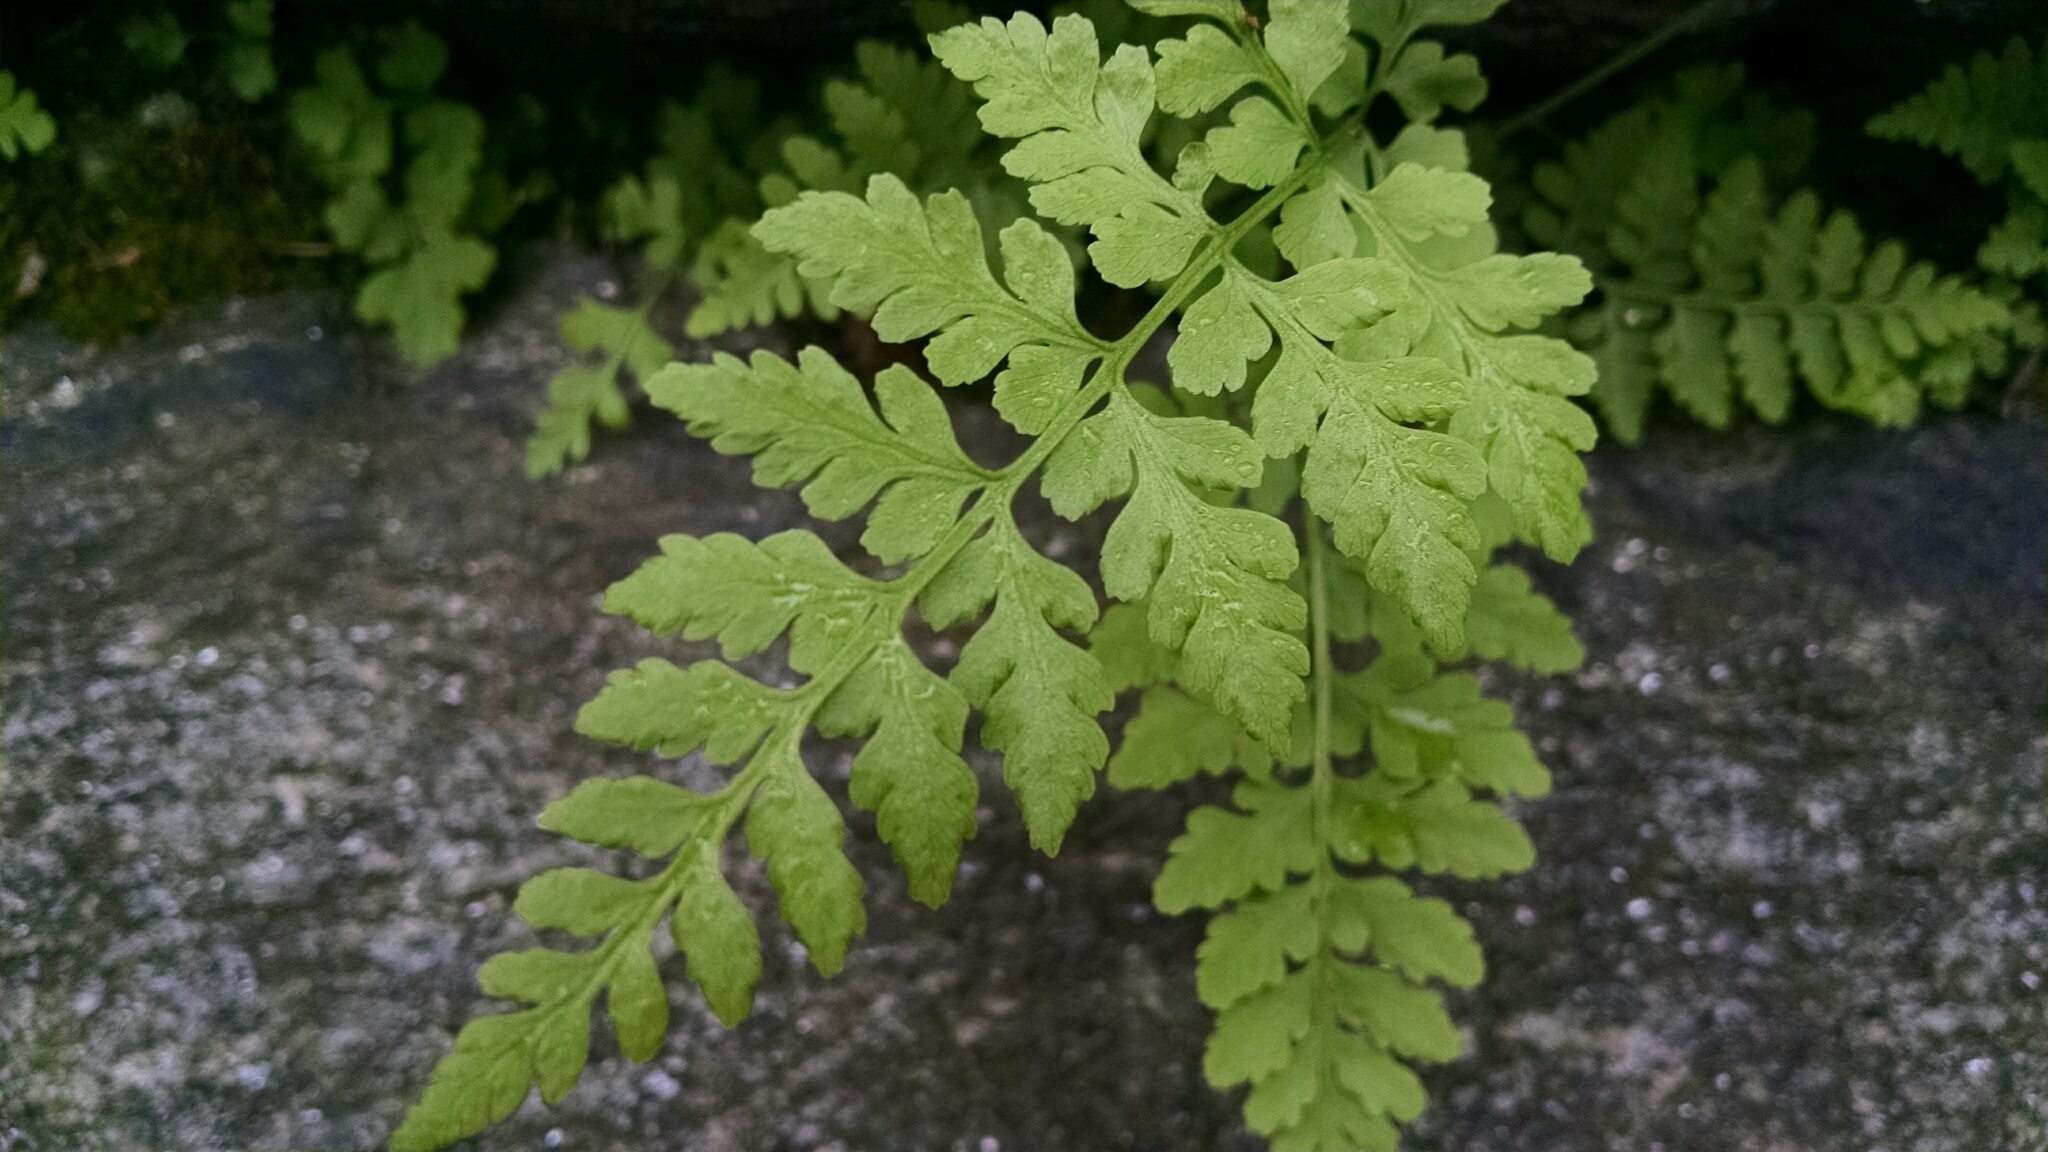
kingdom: Plantae
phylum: Tracheophyta
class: Polypodiopsida
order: Polypodiales
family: Woodsiaceae
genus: Physematium
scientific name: Physematium obtusum
